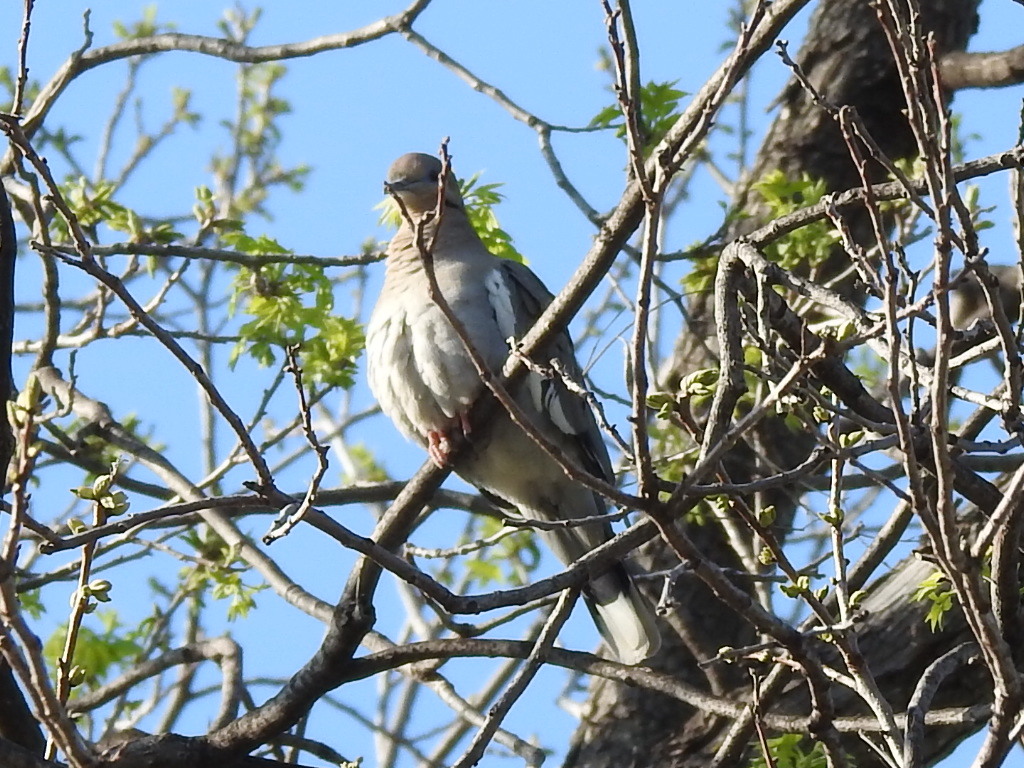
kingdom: Animalia
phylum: Chordata
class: Aves
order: Columbiformes
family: Columbidae
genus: Zenaida
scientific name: Zenaida asiatica
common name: White-winged dove
